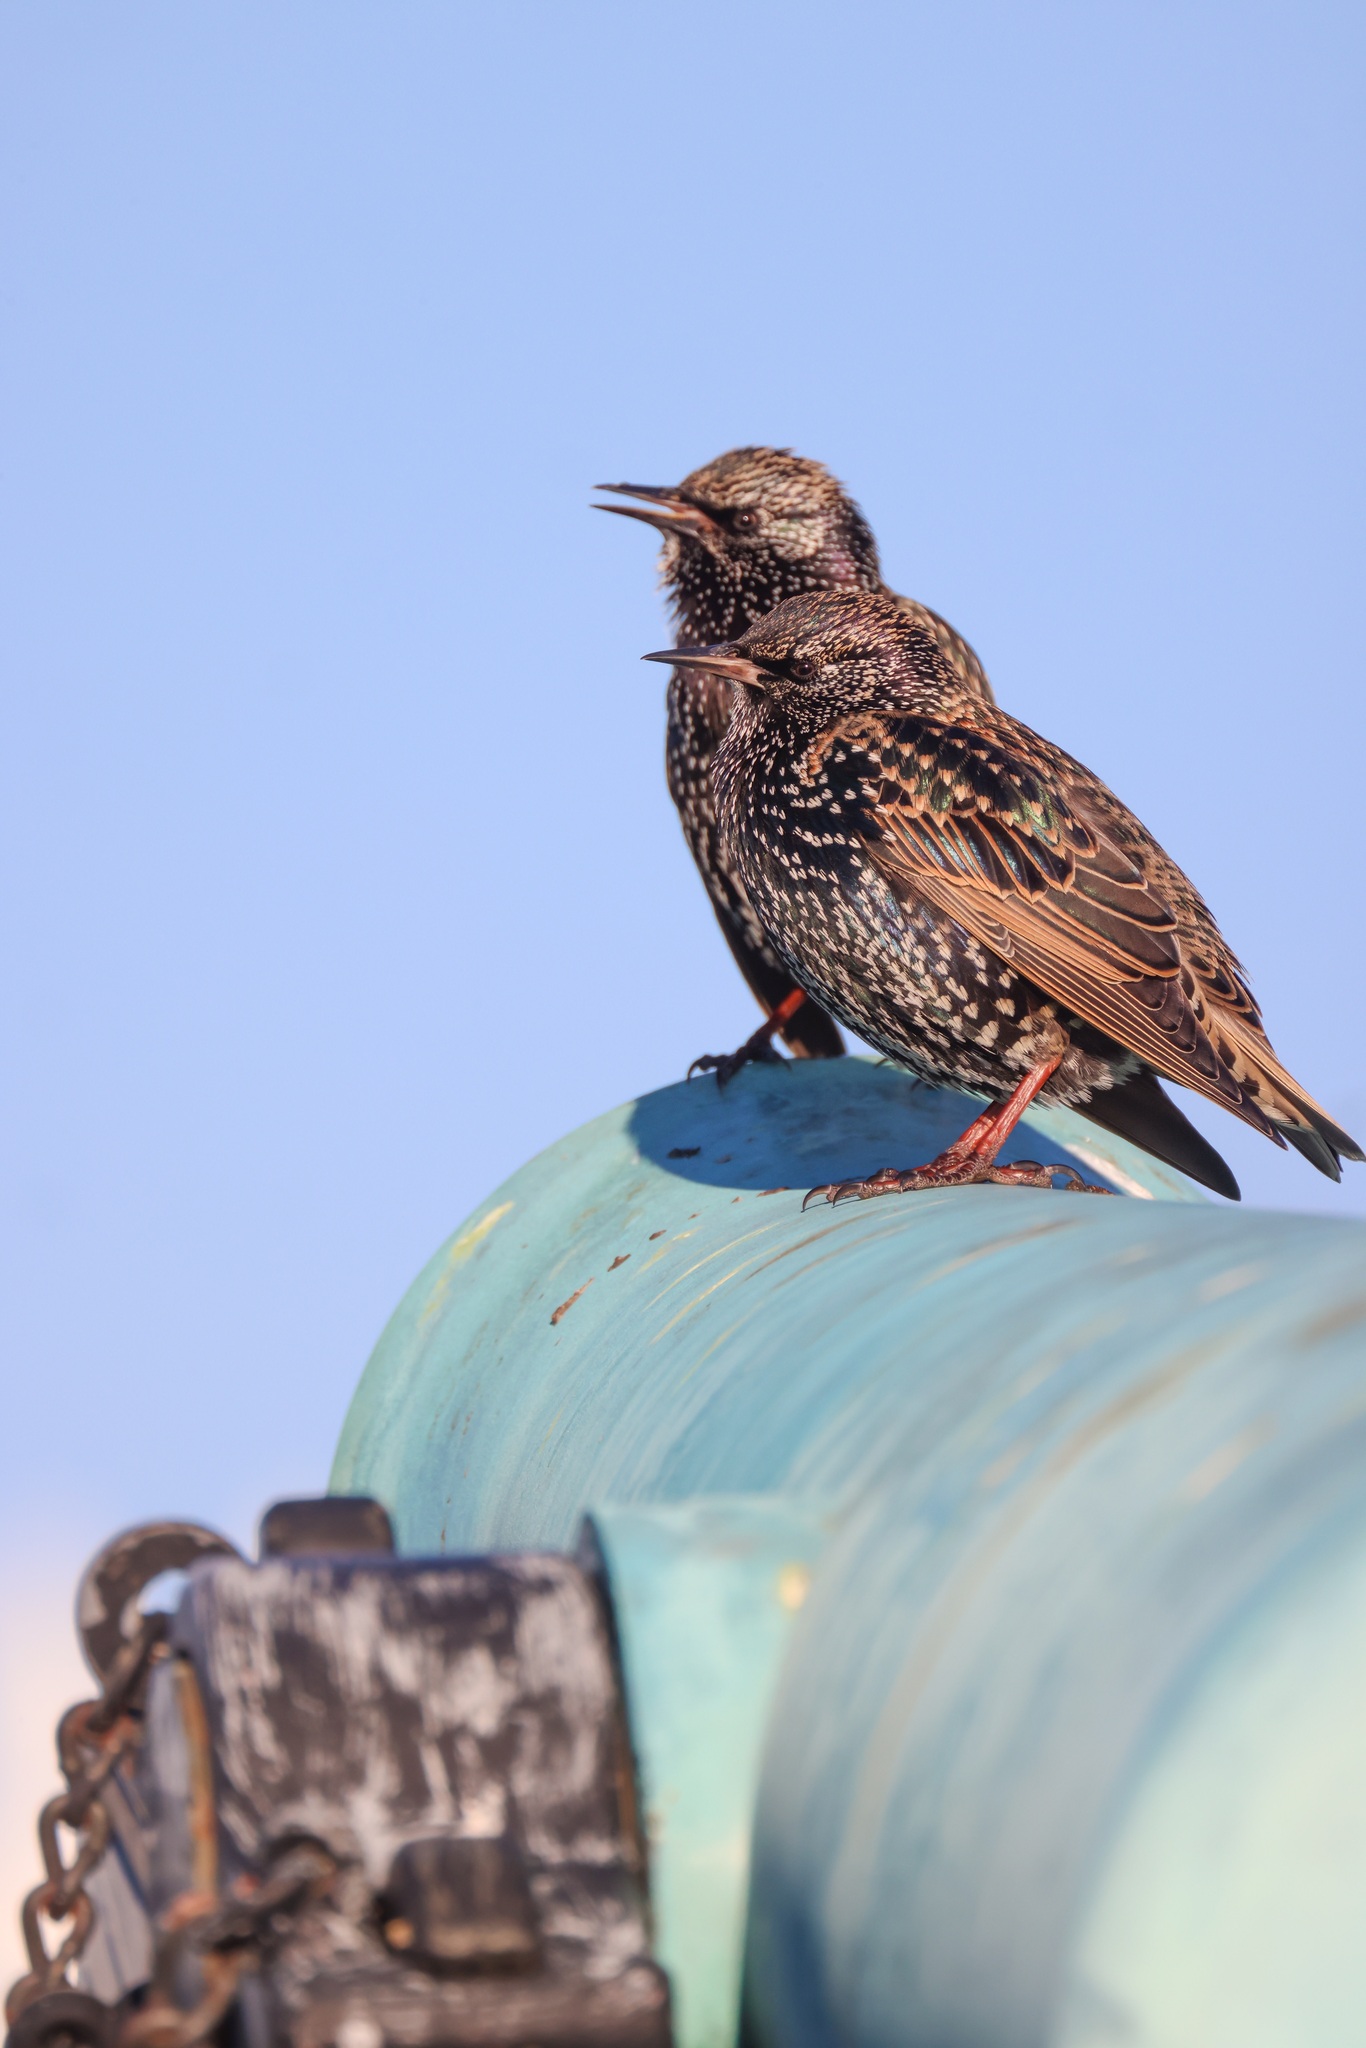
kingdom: Animalia
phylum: Chordata
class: Aves
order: Passeriformes
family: Sturnidae
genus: Sturnus
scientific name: Sturnus vulgaris
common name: Common starling
